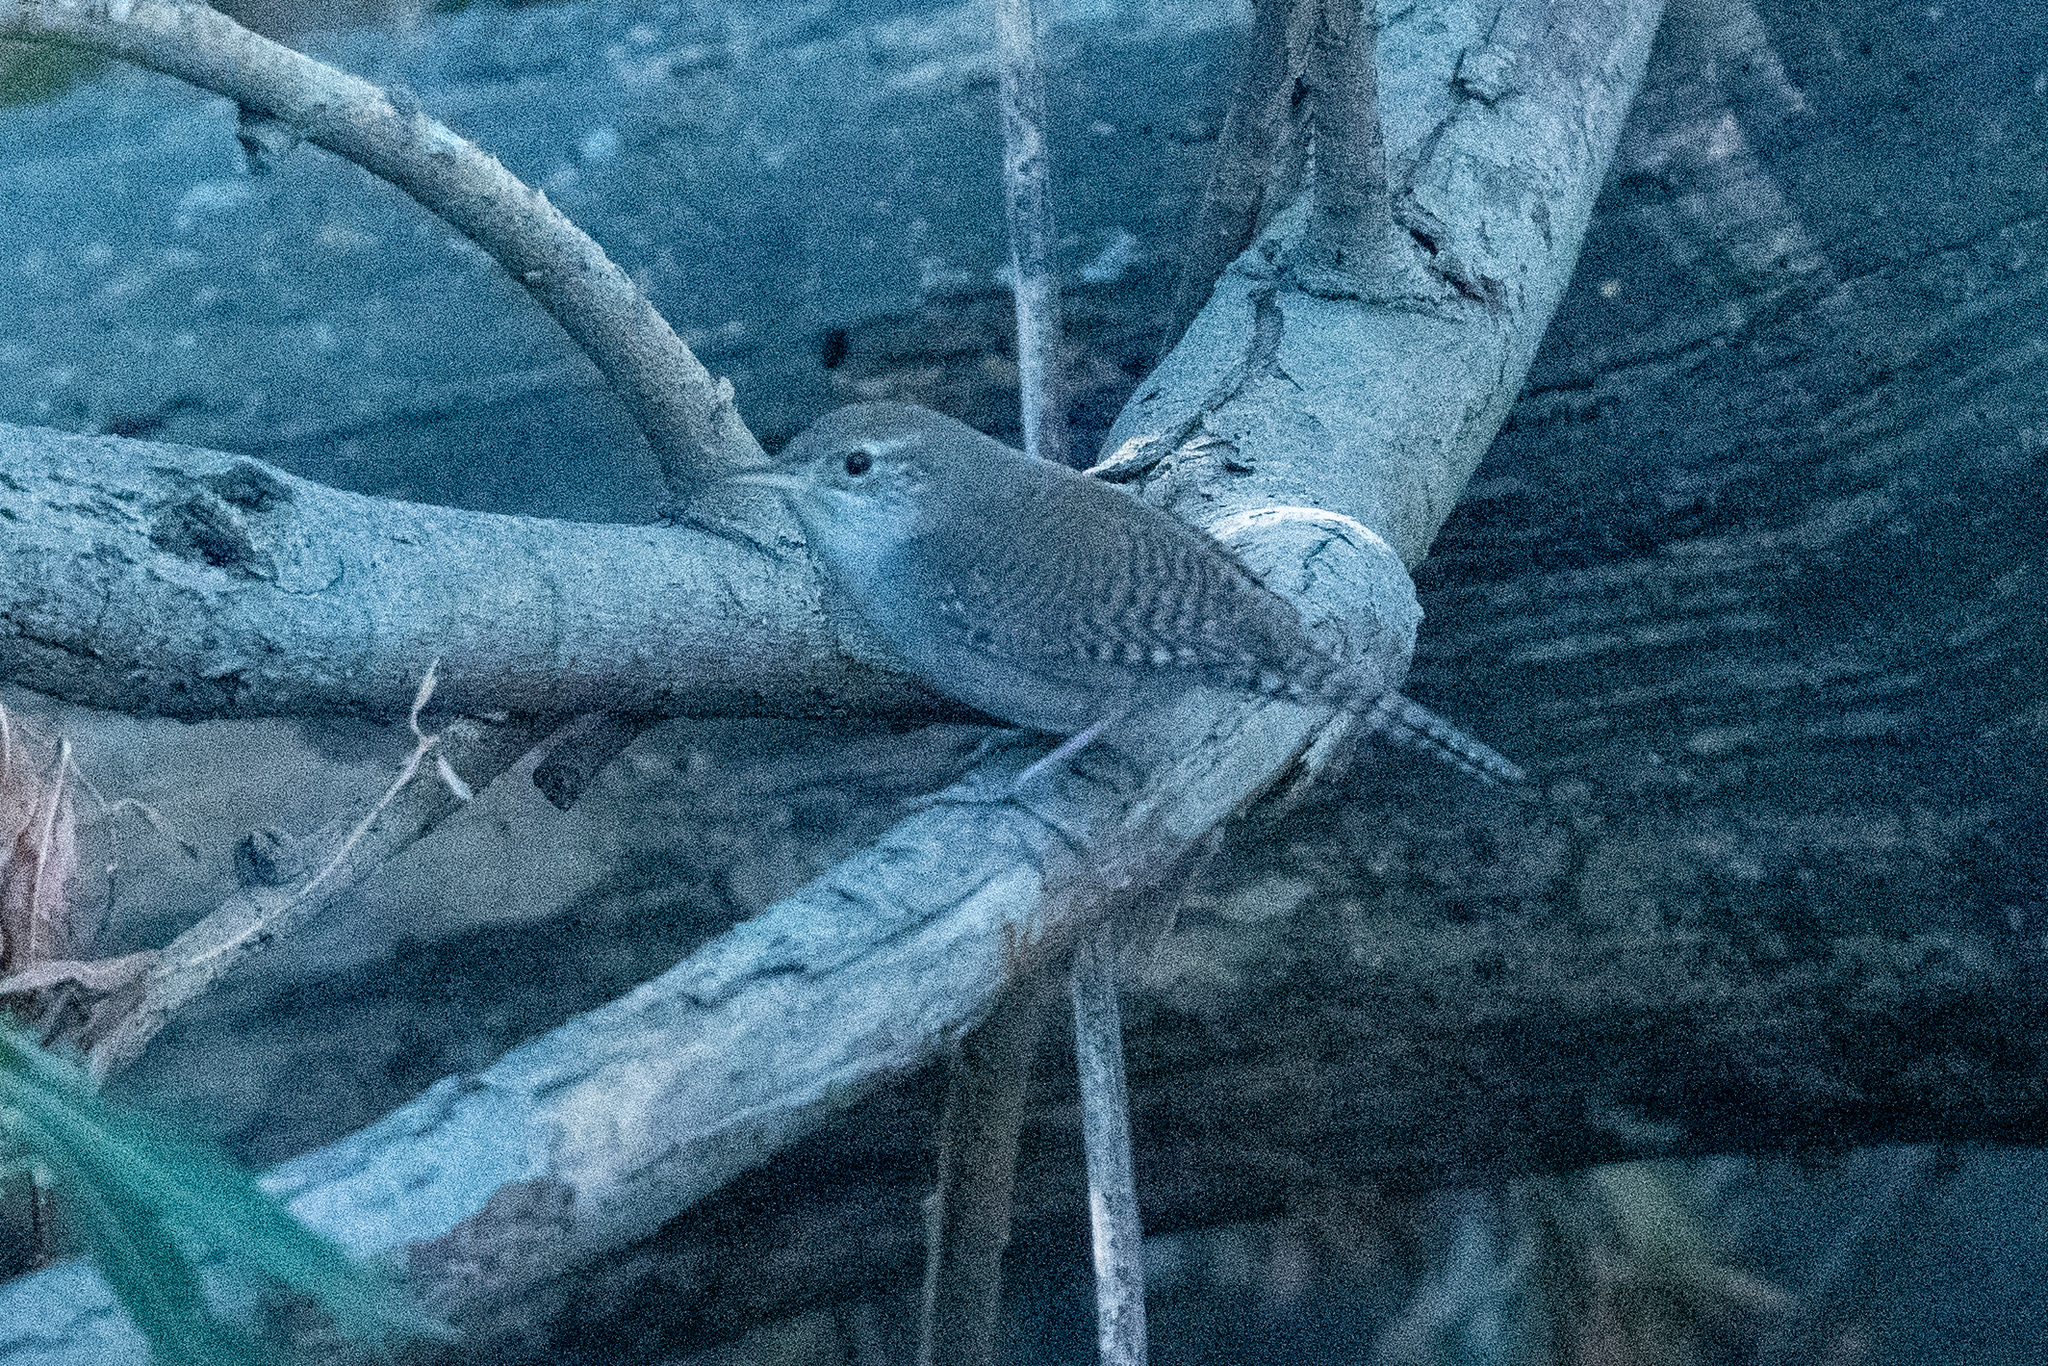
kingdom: Animalia
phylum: Chordata
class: Aves
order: Passeriformes
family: Troglodytidae
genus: Troglodytes
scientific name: Troglodytes aedon
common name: House wren
